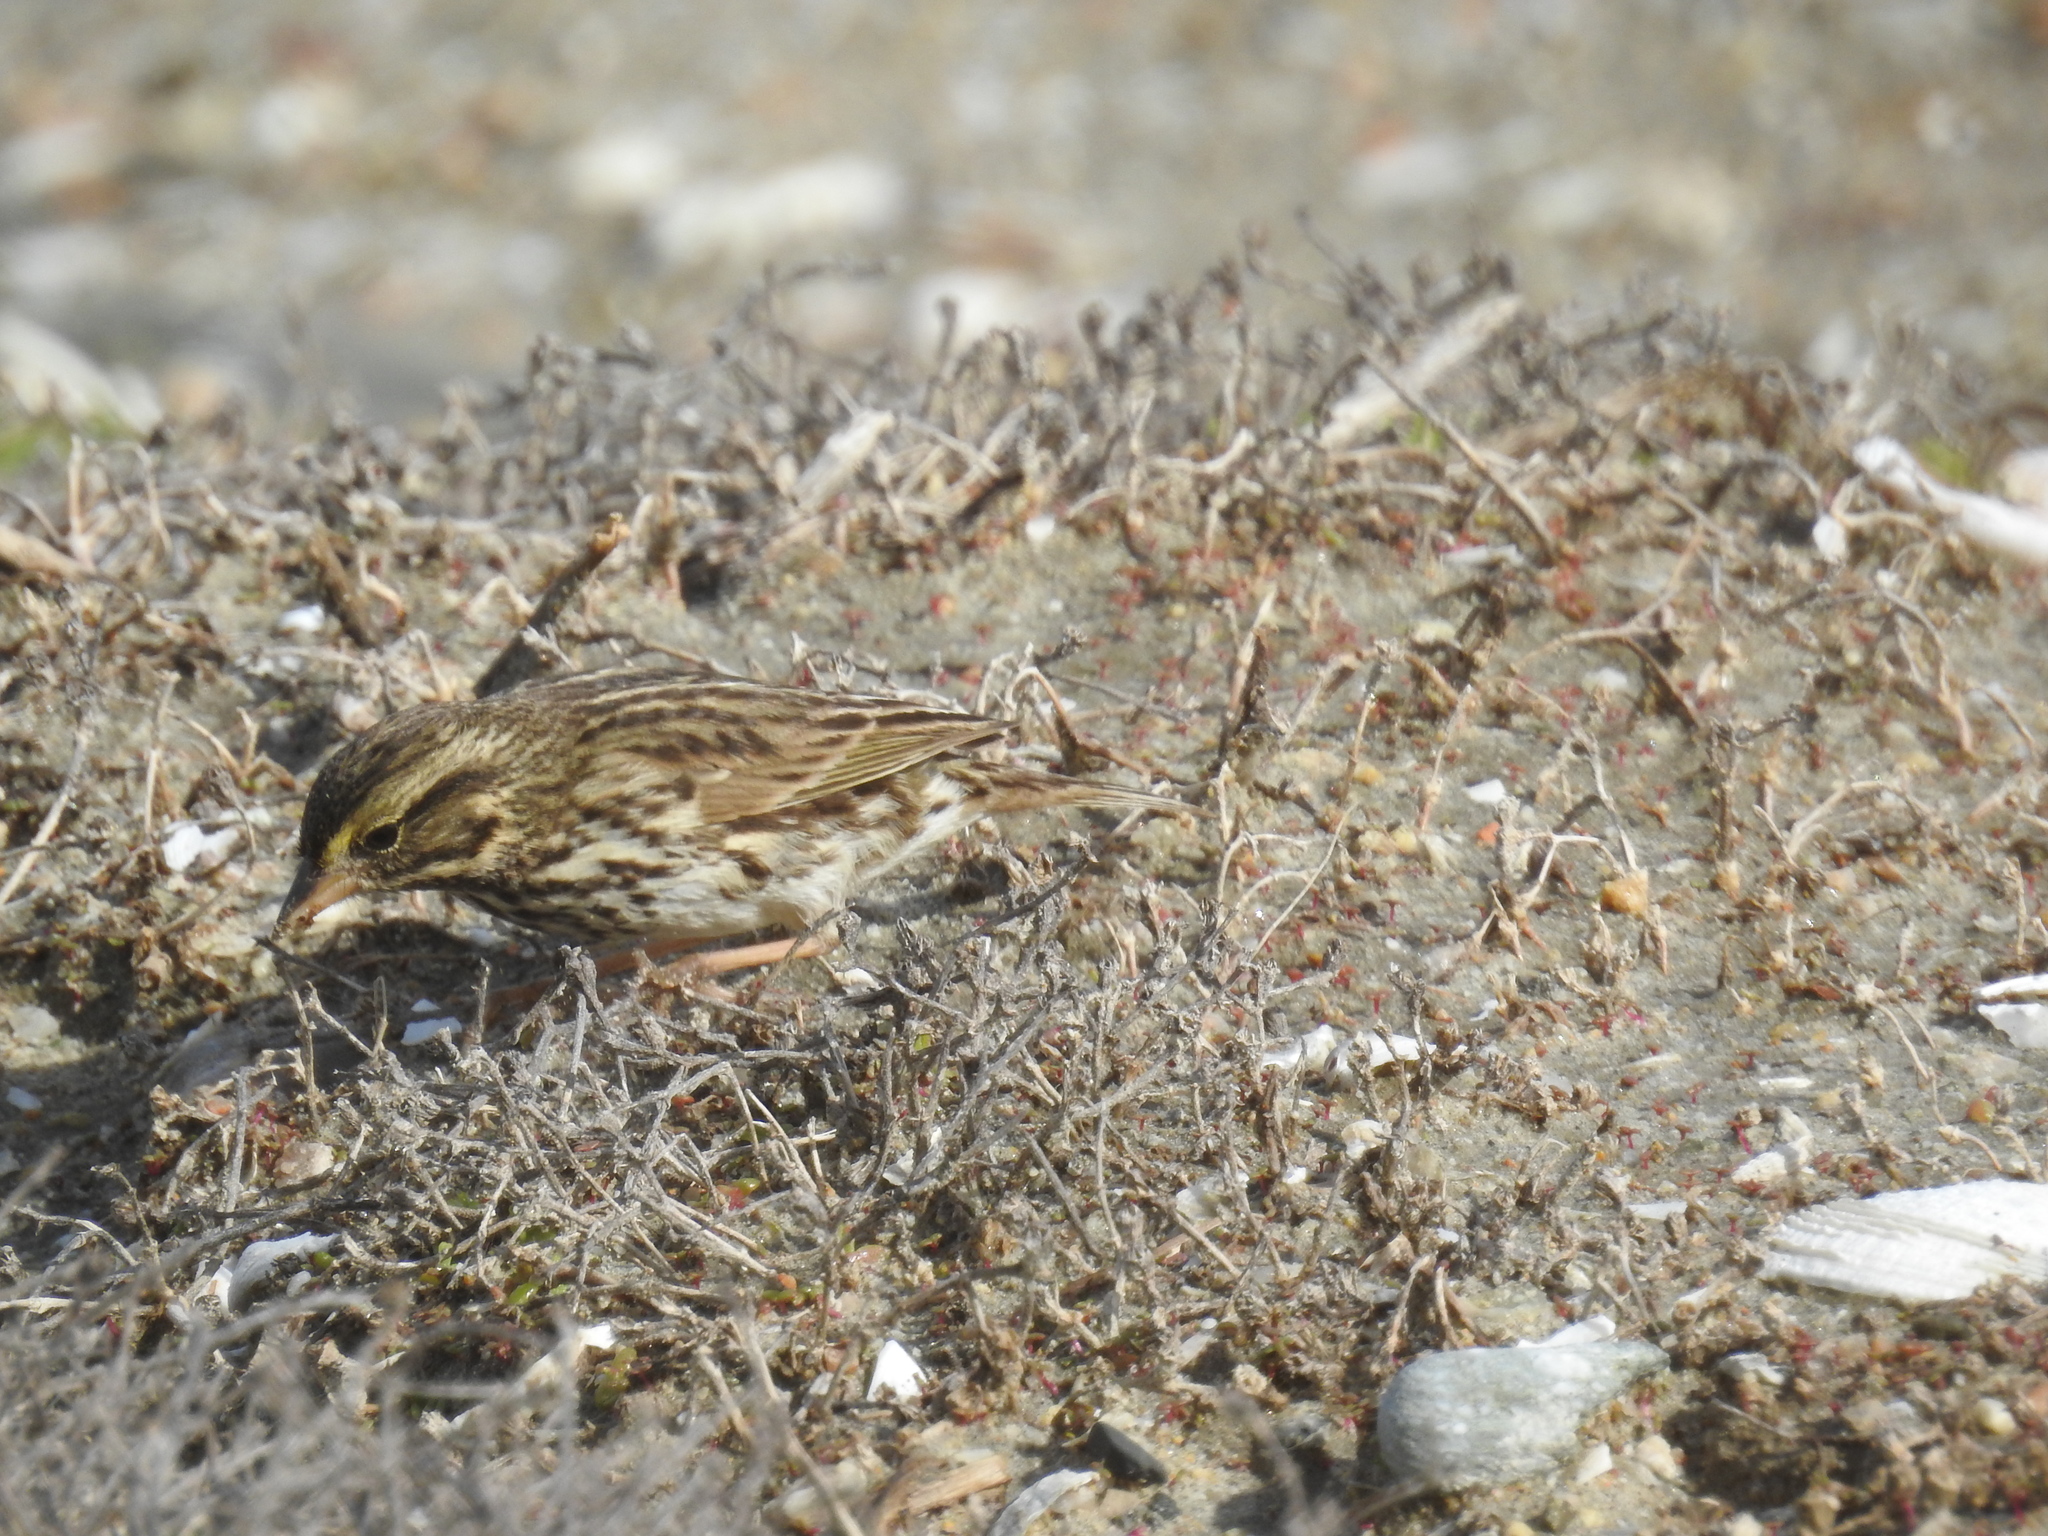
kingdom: Animalia
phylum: Chordata
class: Aves
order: Passeriformes
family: Passerellidae
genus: Passerculus
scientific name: Passerculus sandwichensis
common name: Savannah sparrow
